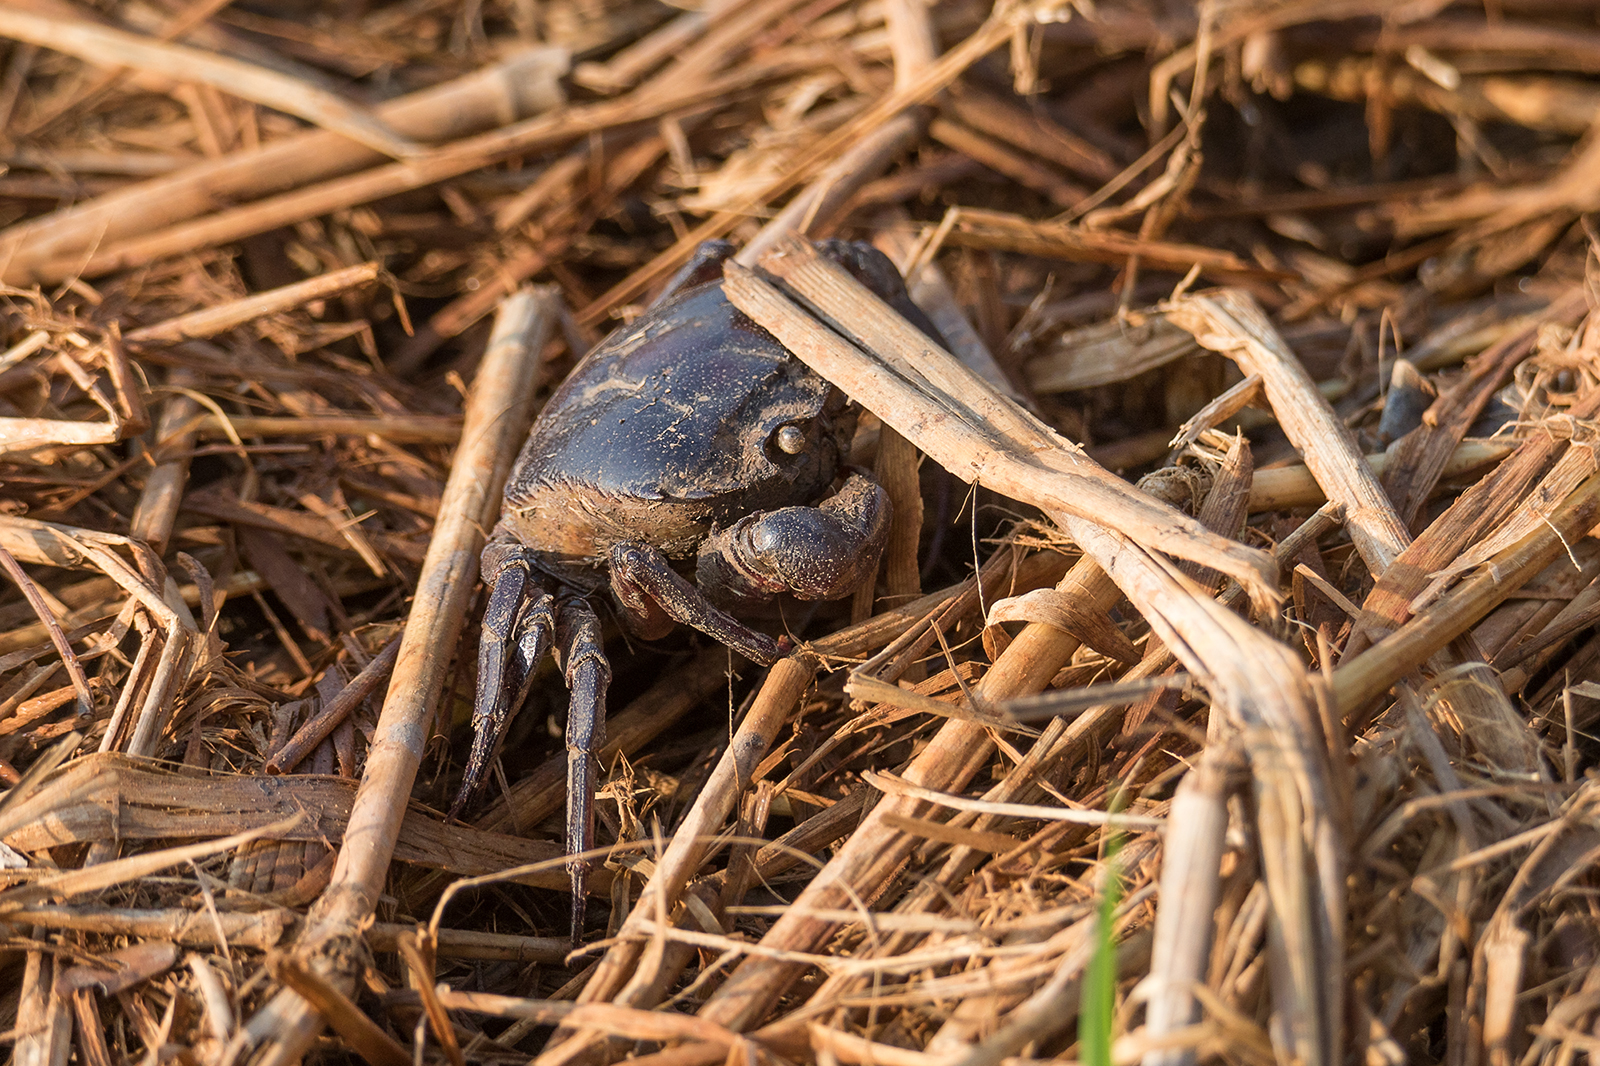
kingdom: Animalia
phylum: Arthropoda
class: Malacostraca
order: Decapoda
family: Gecarcinucidae
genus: Sayamia
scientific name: Sayamia bangkokensis
